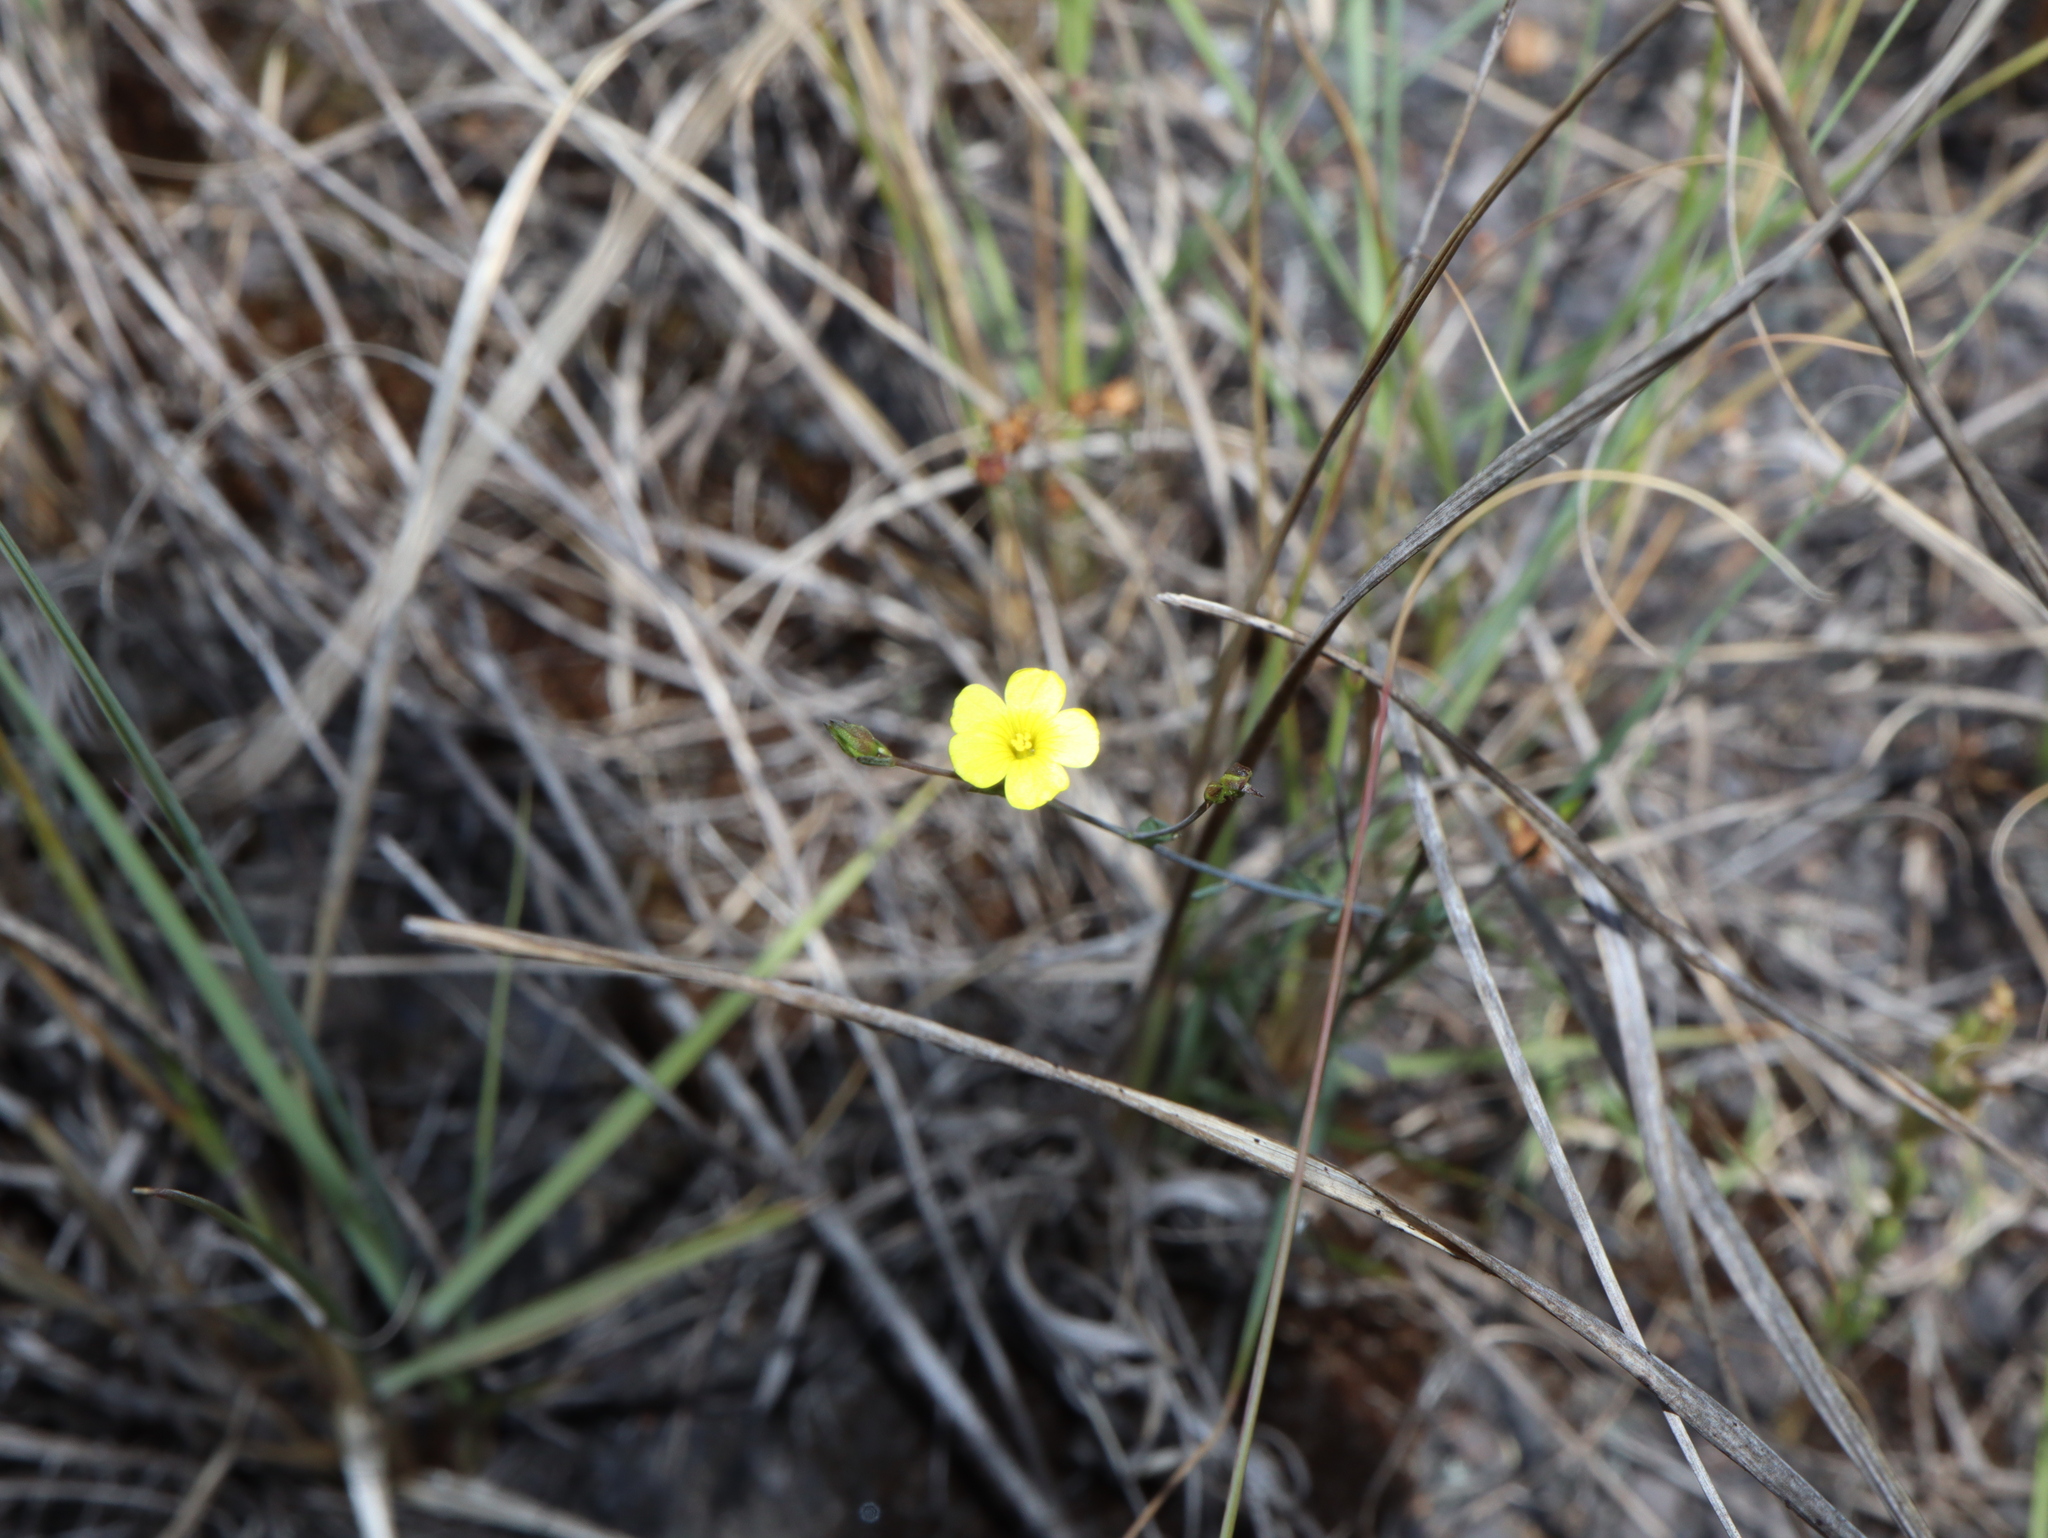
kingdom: Plantae
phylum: Tracheophyta
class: Magnoliopsida
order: Malpighiales
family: Linaceae
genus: Linum
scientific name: Linum trigynum
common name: French flax
